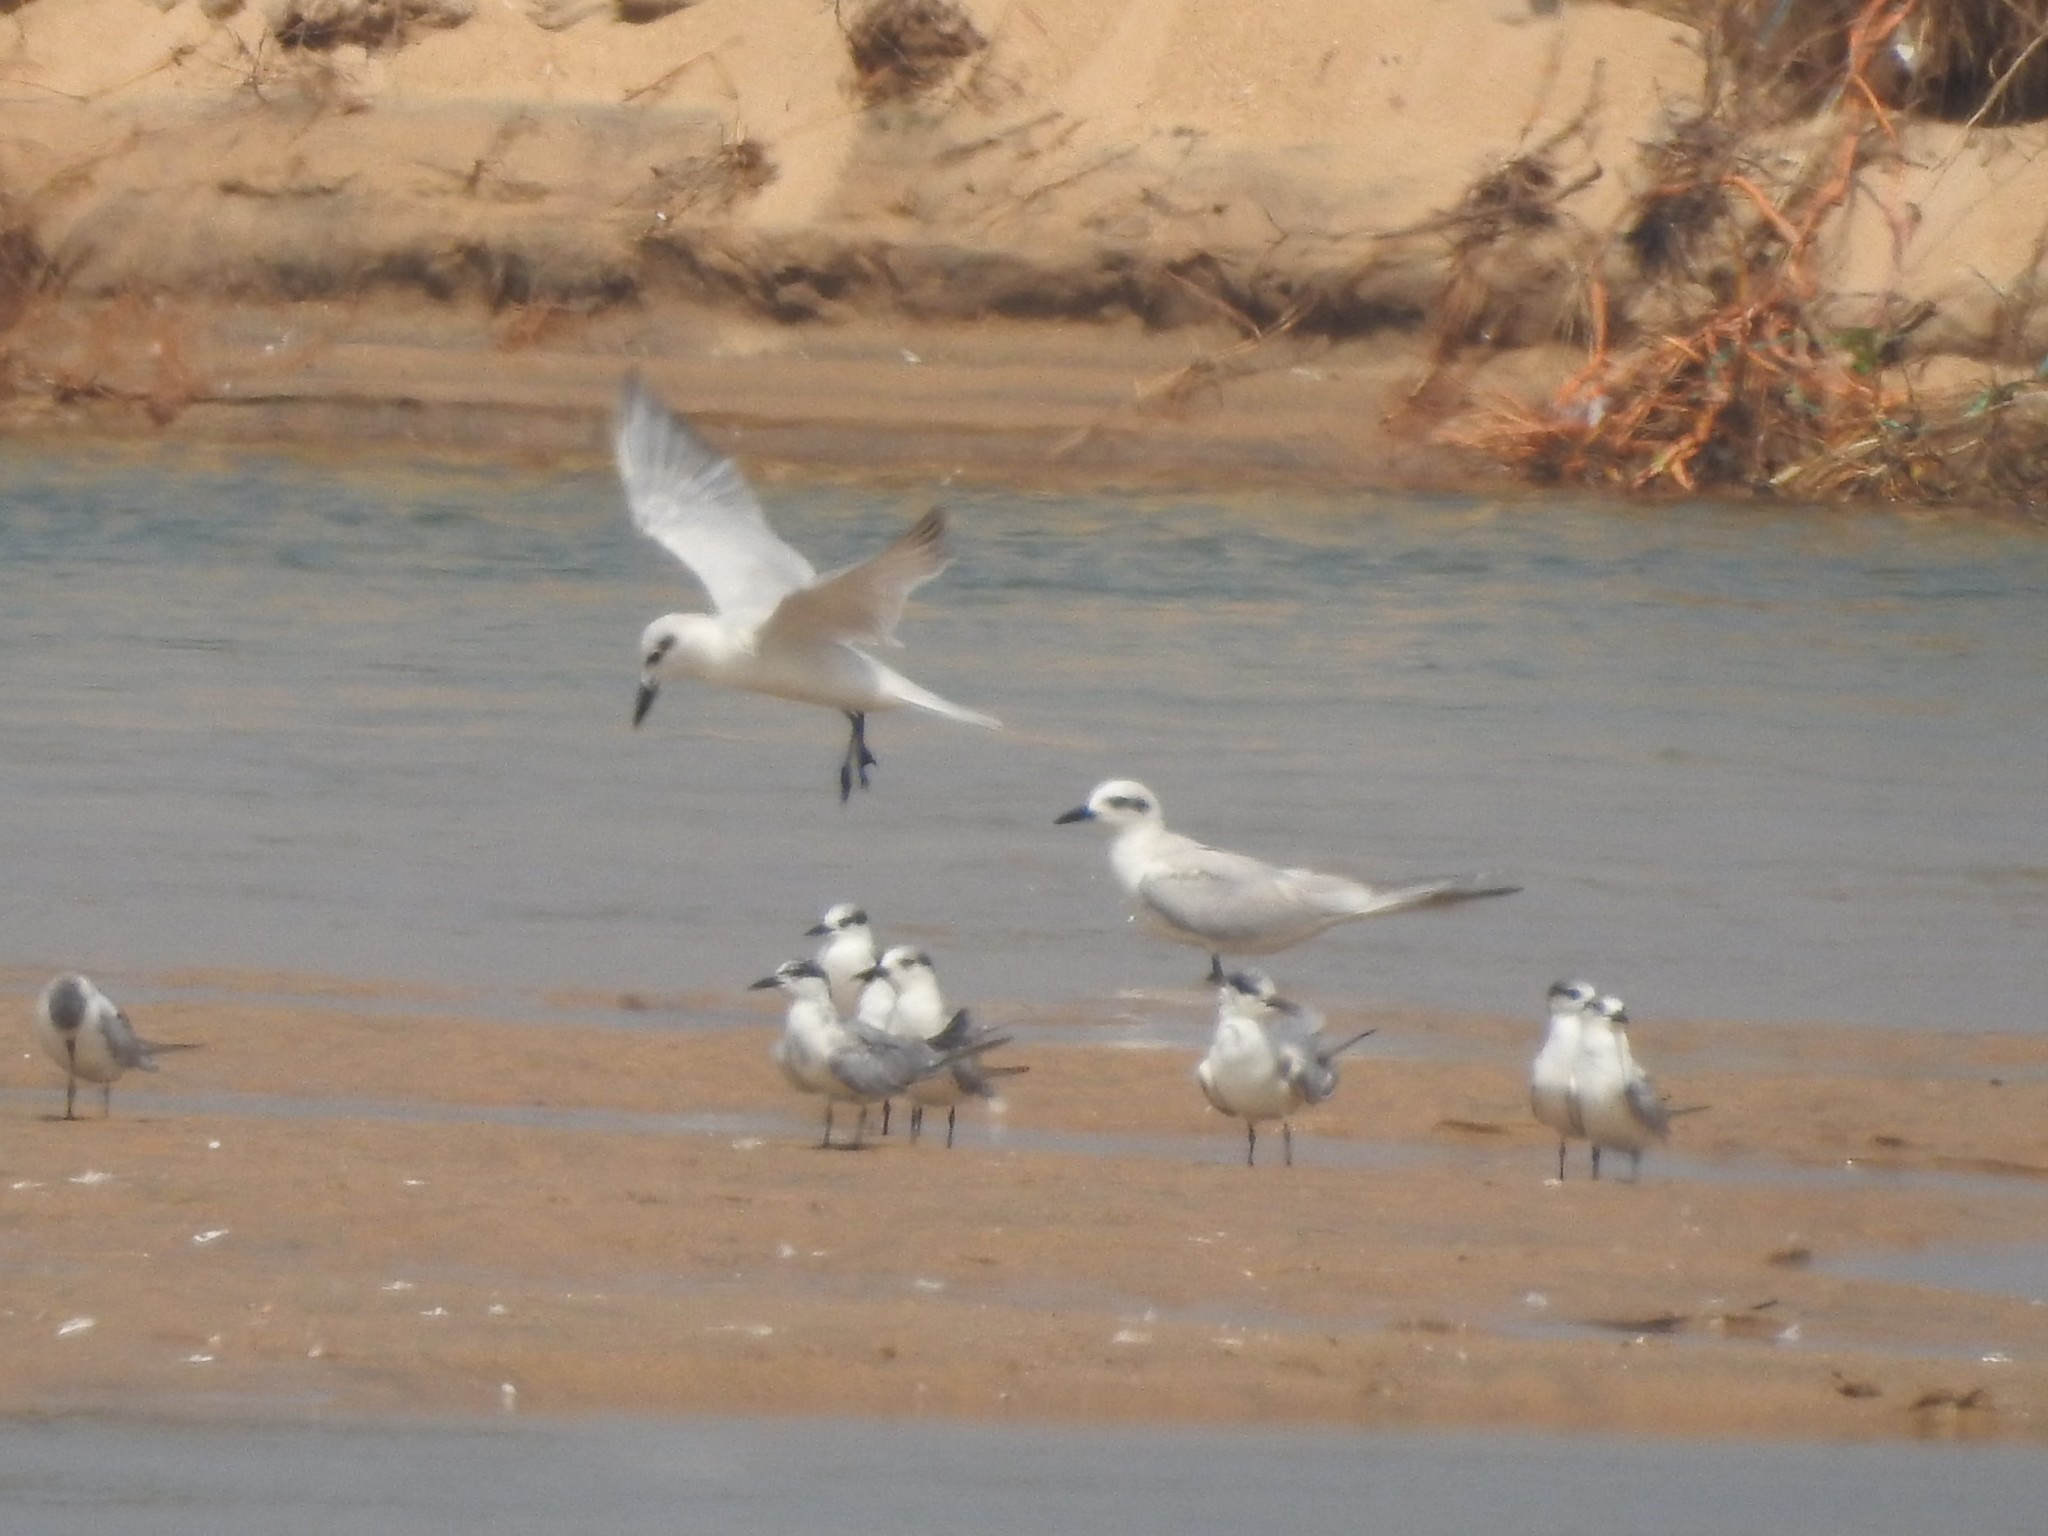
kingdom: Animalia
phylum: Chordata
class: Aves
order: Charadriiformes
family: Laridae
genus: Gelochelidon
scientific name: Gelochelidon nilotica
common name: Gull-billed tern
